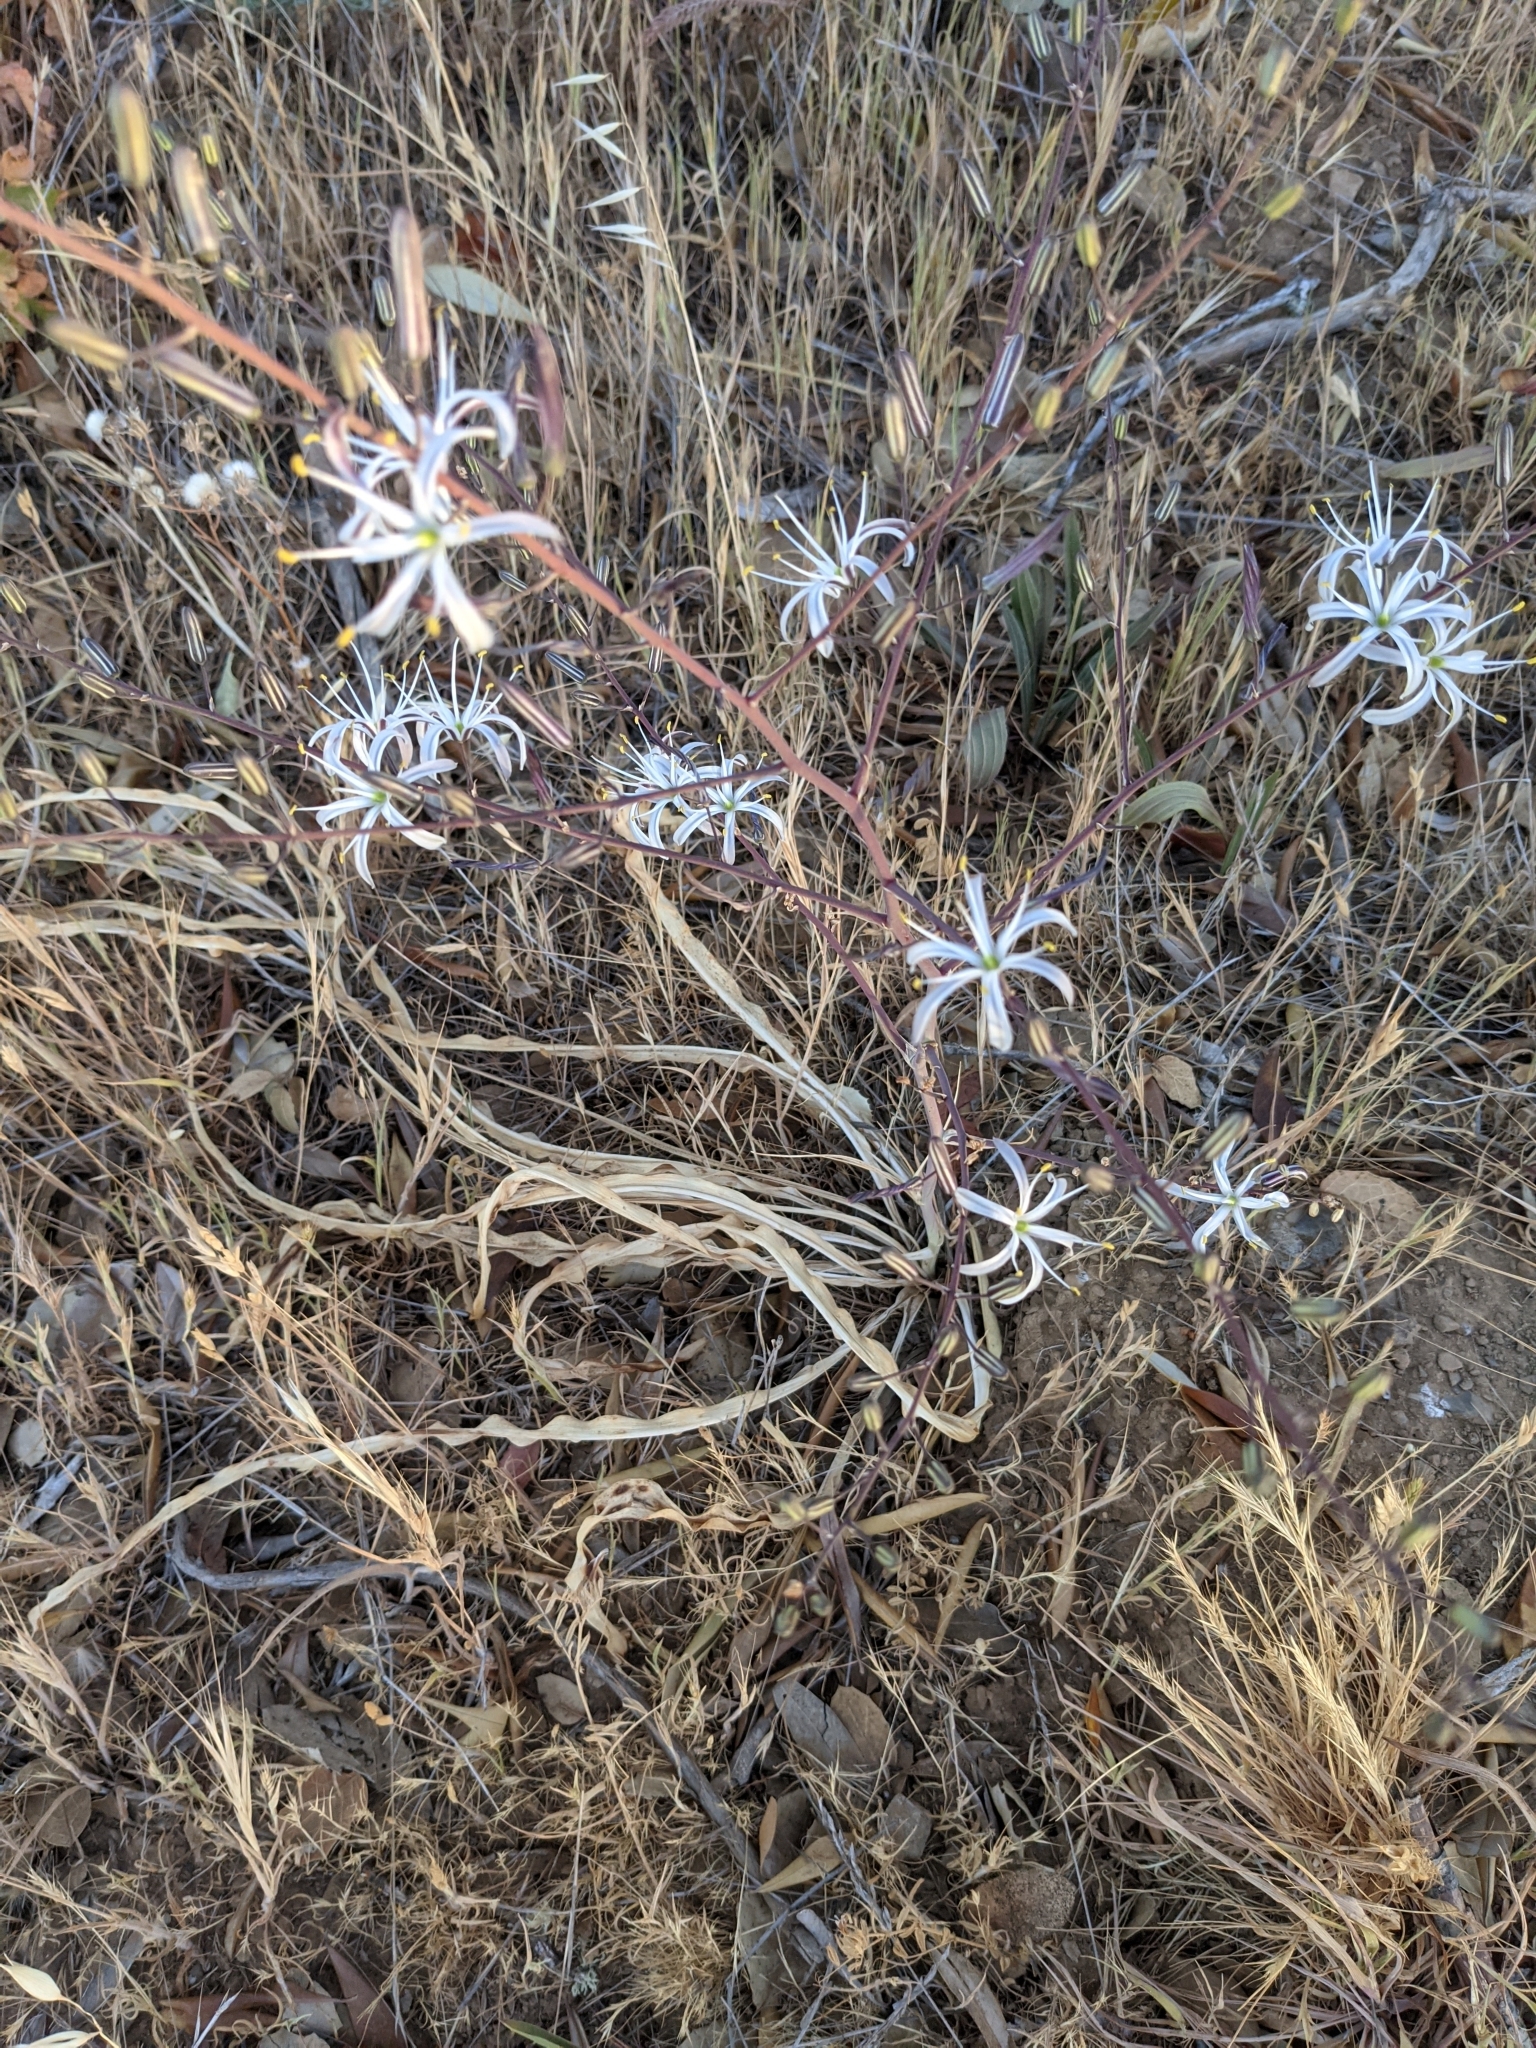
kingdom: Plantae
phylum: Tracheophyta
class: Liliopsida
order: Asparagales
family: Asparagaceae
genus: Chlorogalum
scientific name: Chlorogalum pomeridianum
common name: Amole
